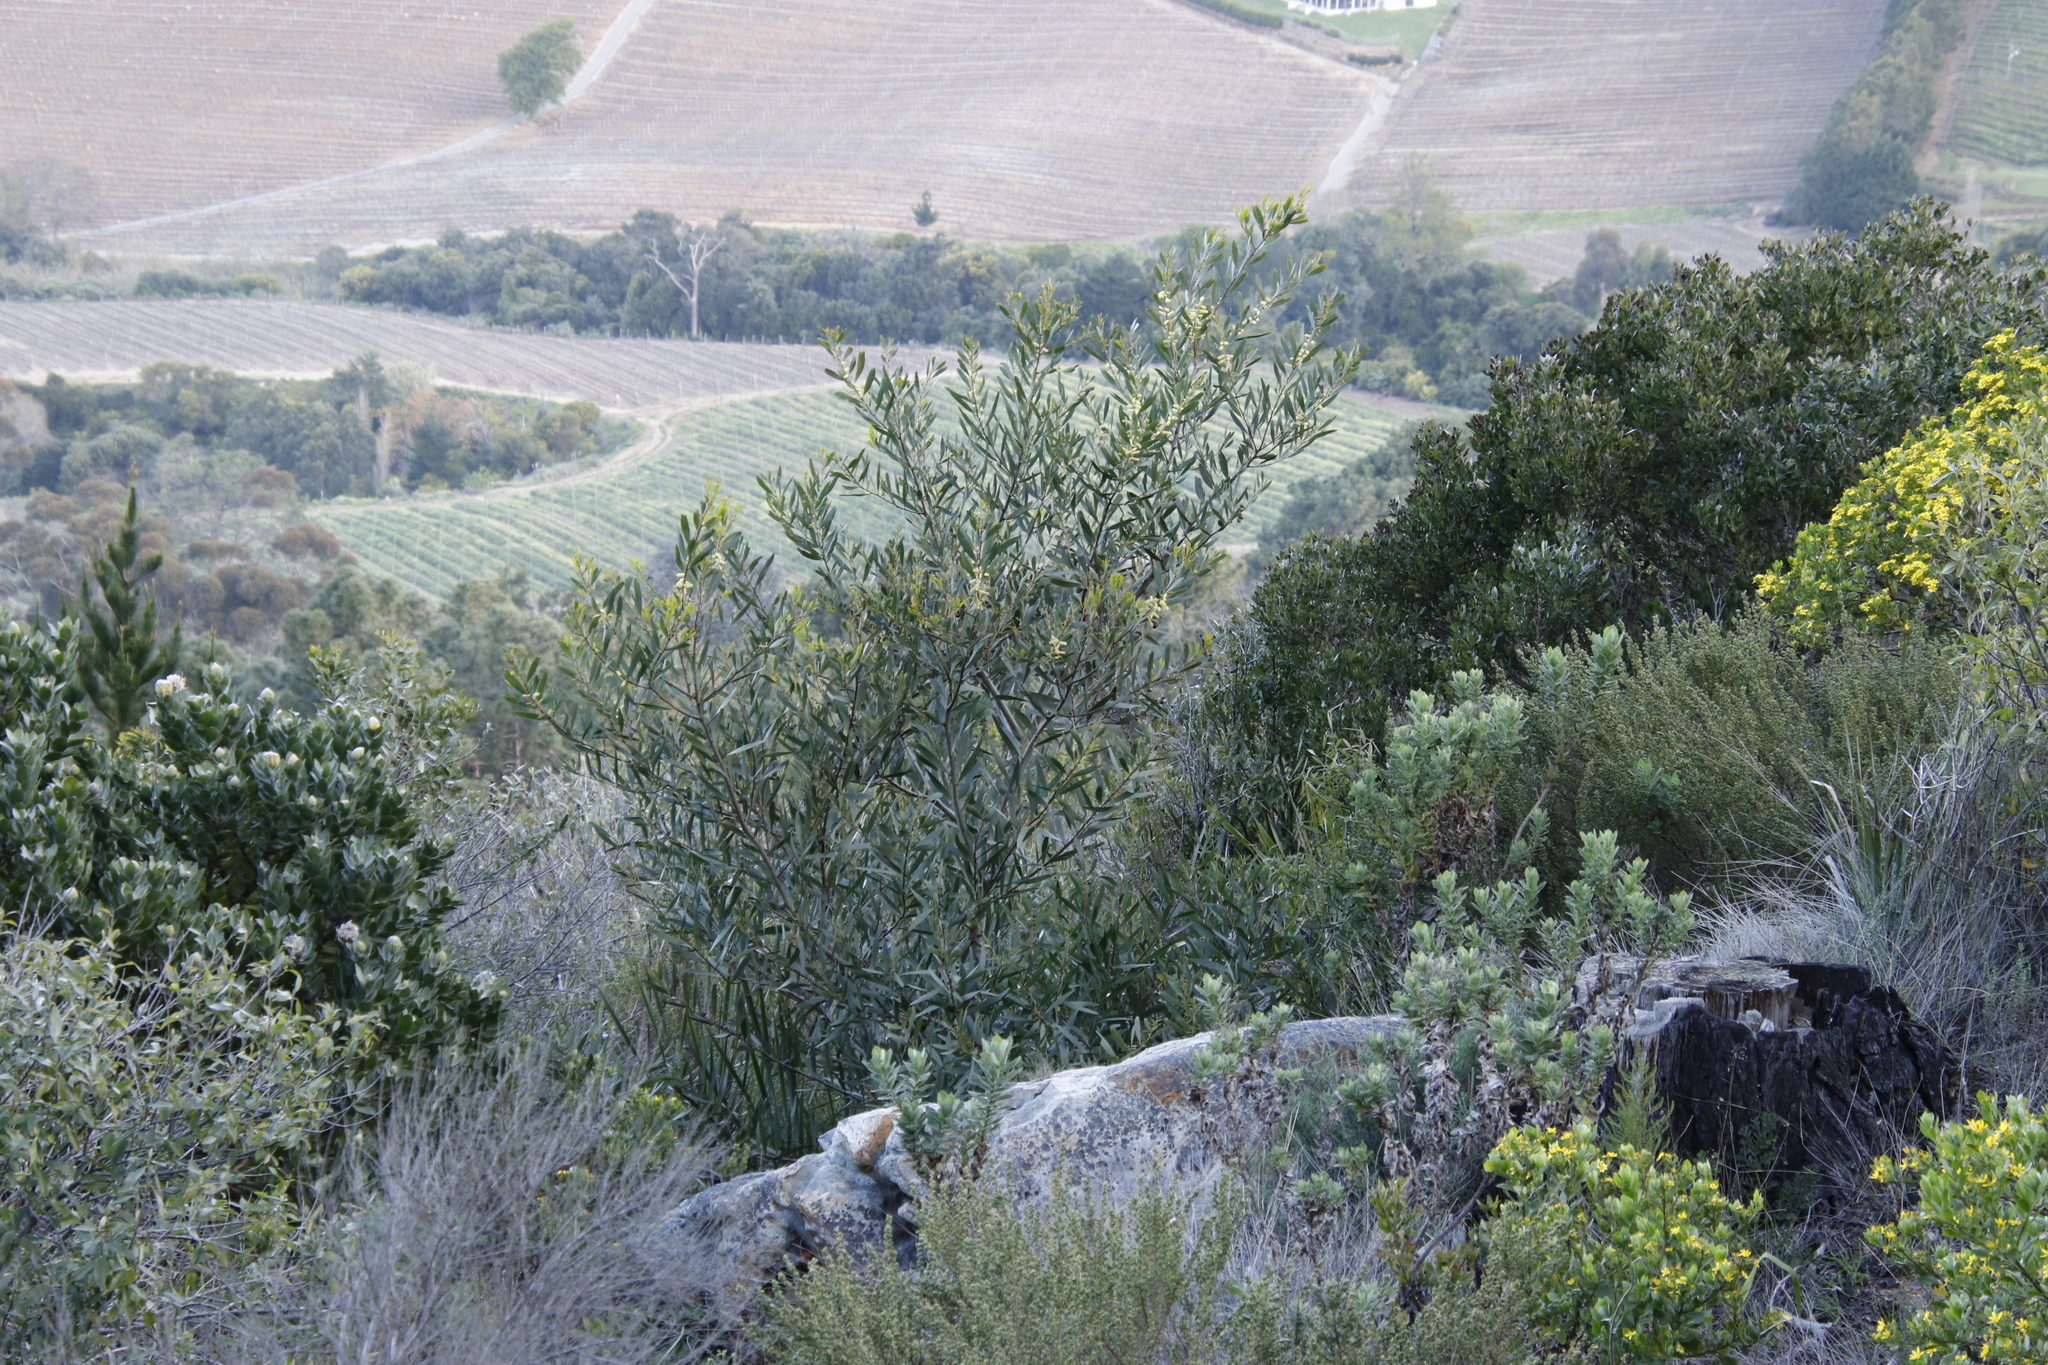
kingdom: Plantae
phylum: Tracheophyta
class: Magnoliopsida
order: Fabales
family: Fabaceae
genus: Acacia
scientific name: Acacia longifolia
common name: Sydney golden wattle
